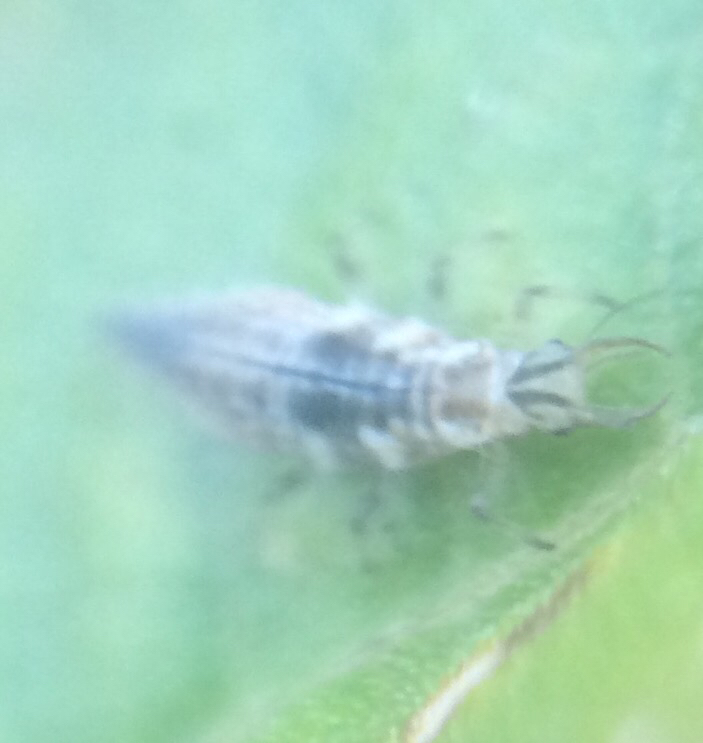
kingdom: Animalia
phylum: Arthropoda
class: Insecta
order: Neuroptera
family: Chrysopidae
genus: Chrysoperla
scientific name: Chrysoperla
